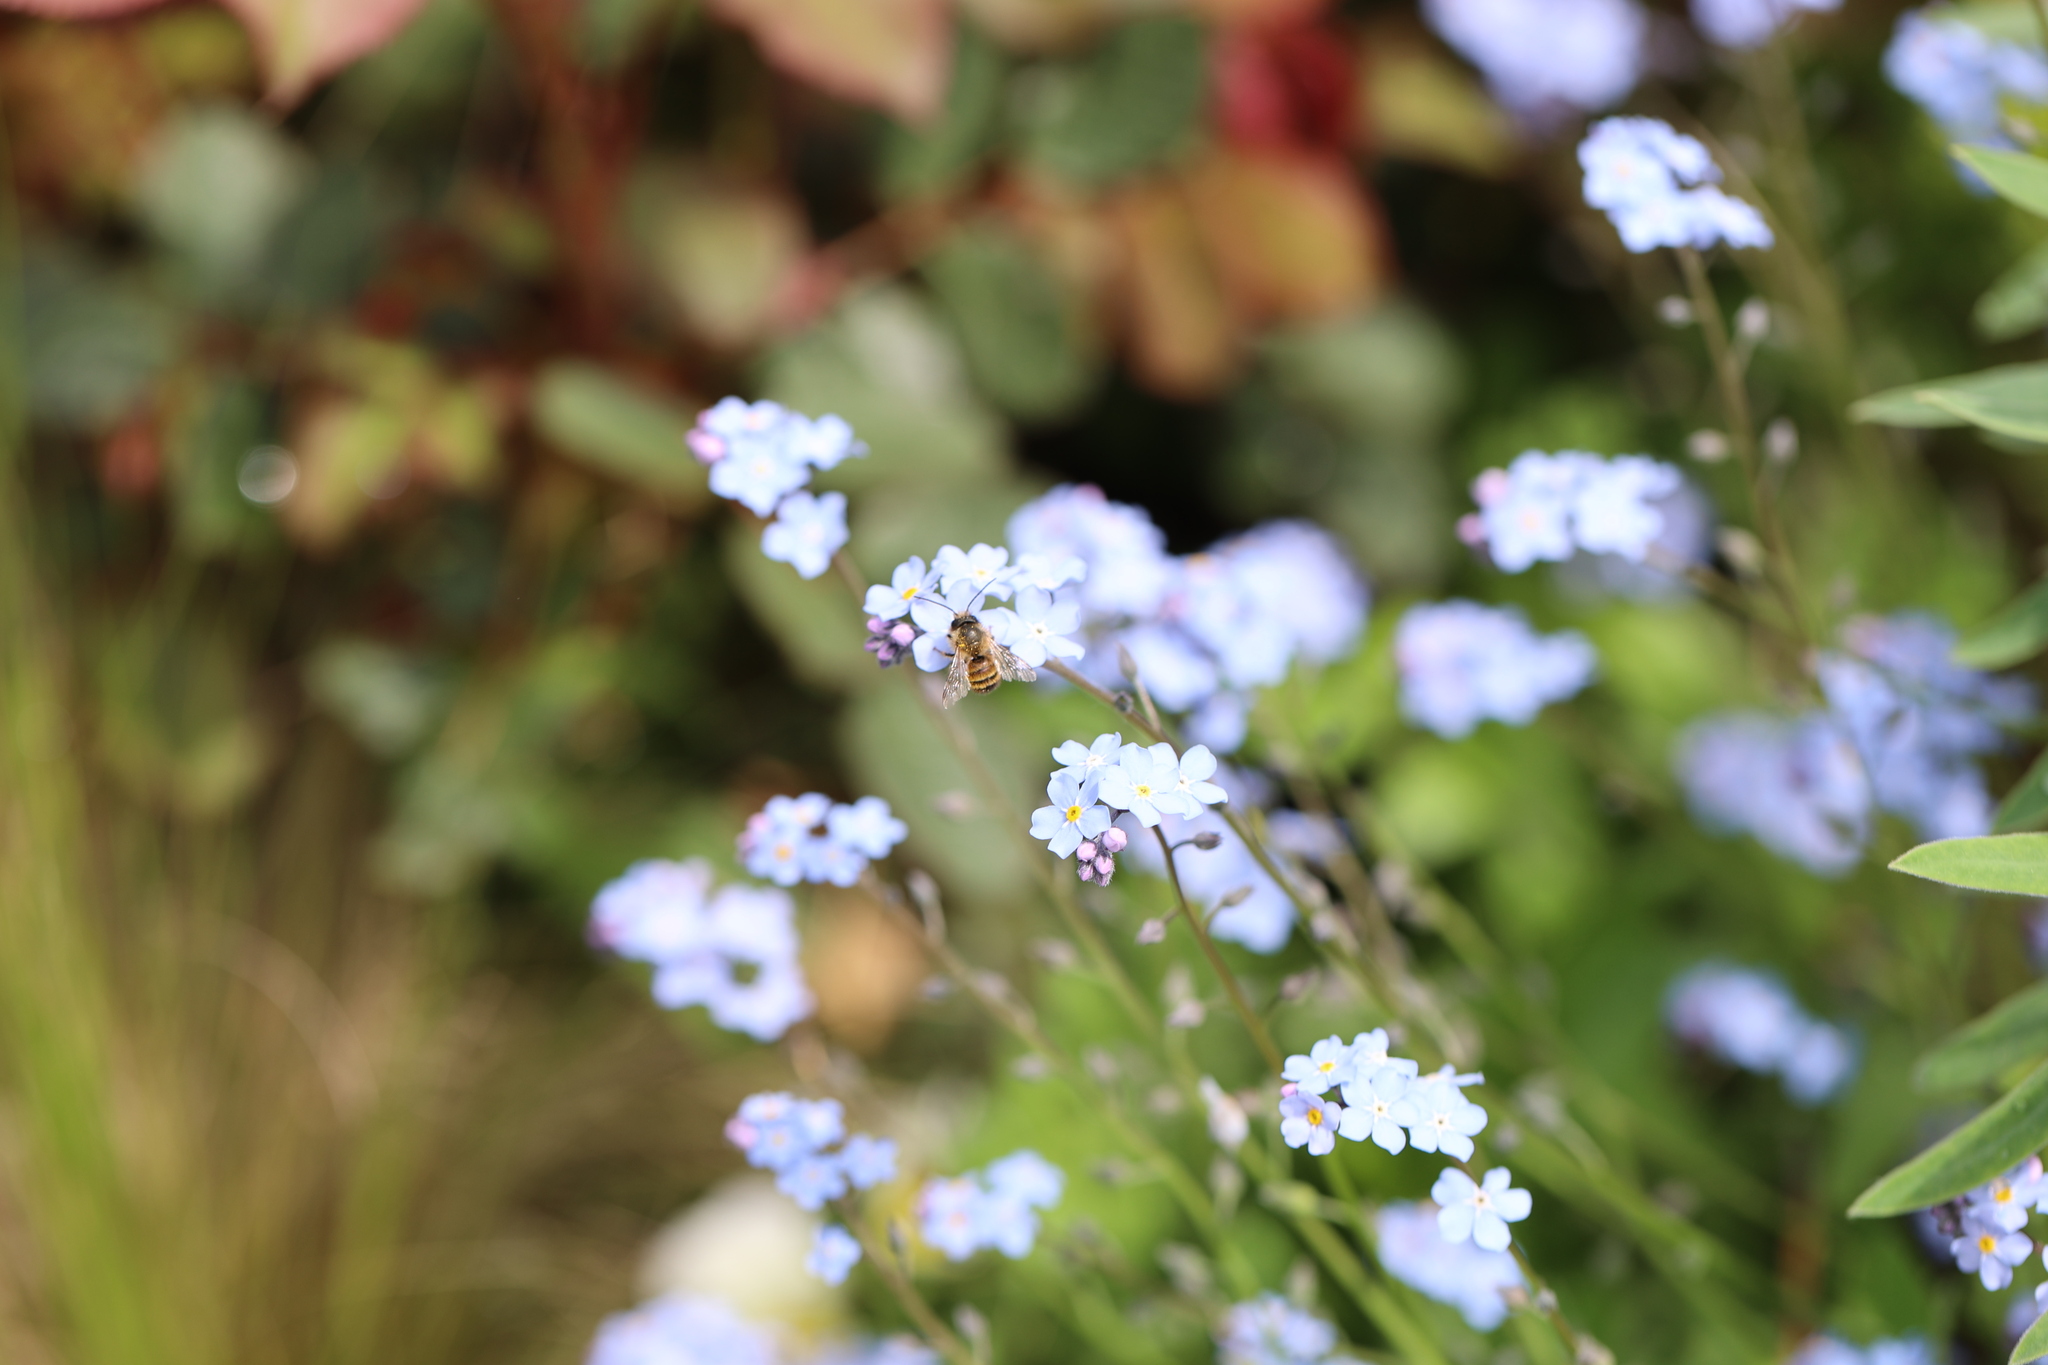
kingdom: Animalia
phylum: Arthropoda
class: Insecta
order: Hymenoptera
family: Megachilidae
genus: Osmia
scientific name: Osmia bicornis
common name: Red mason bee
